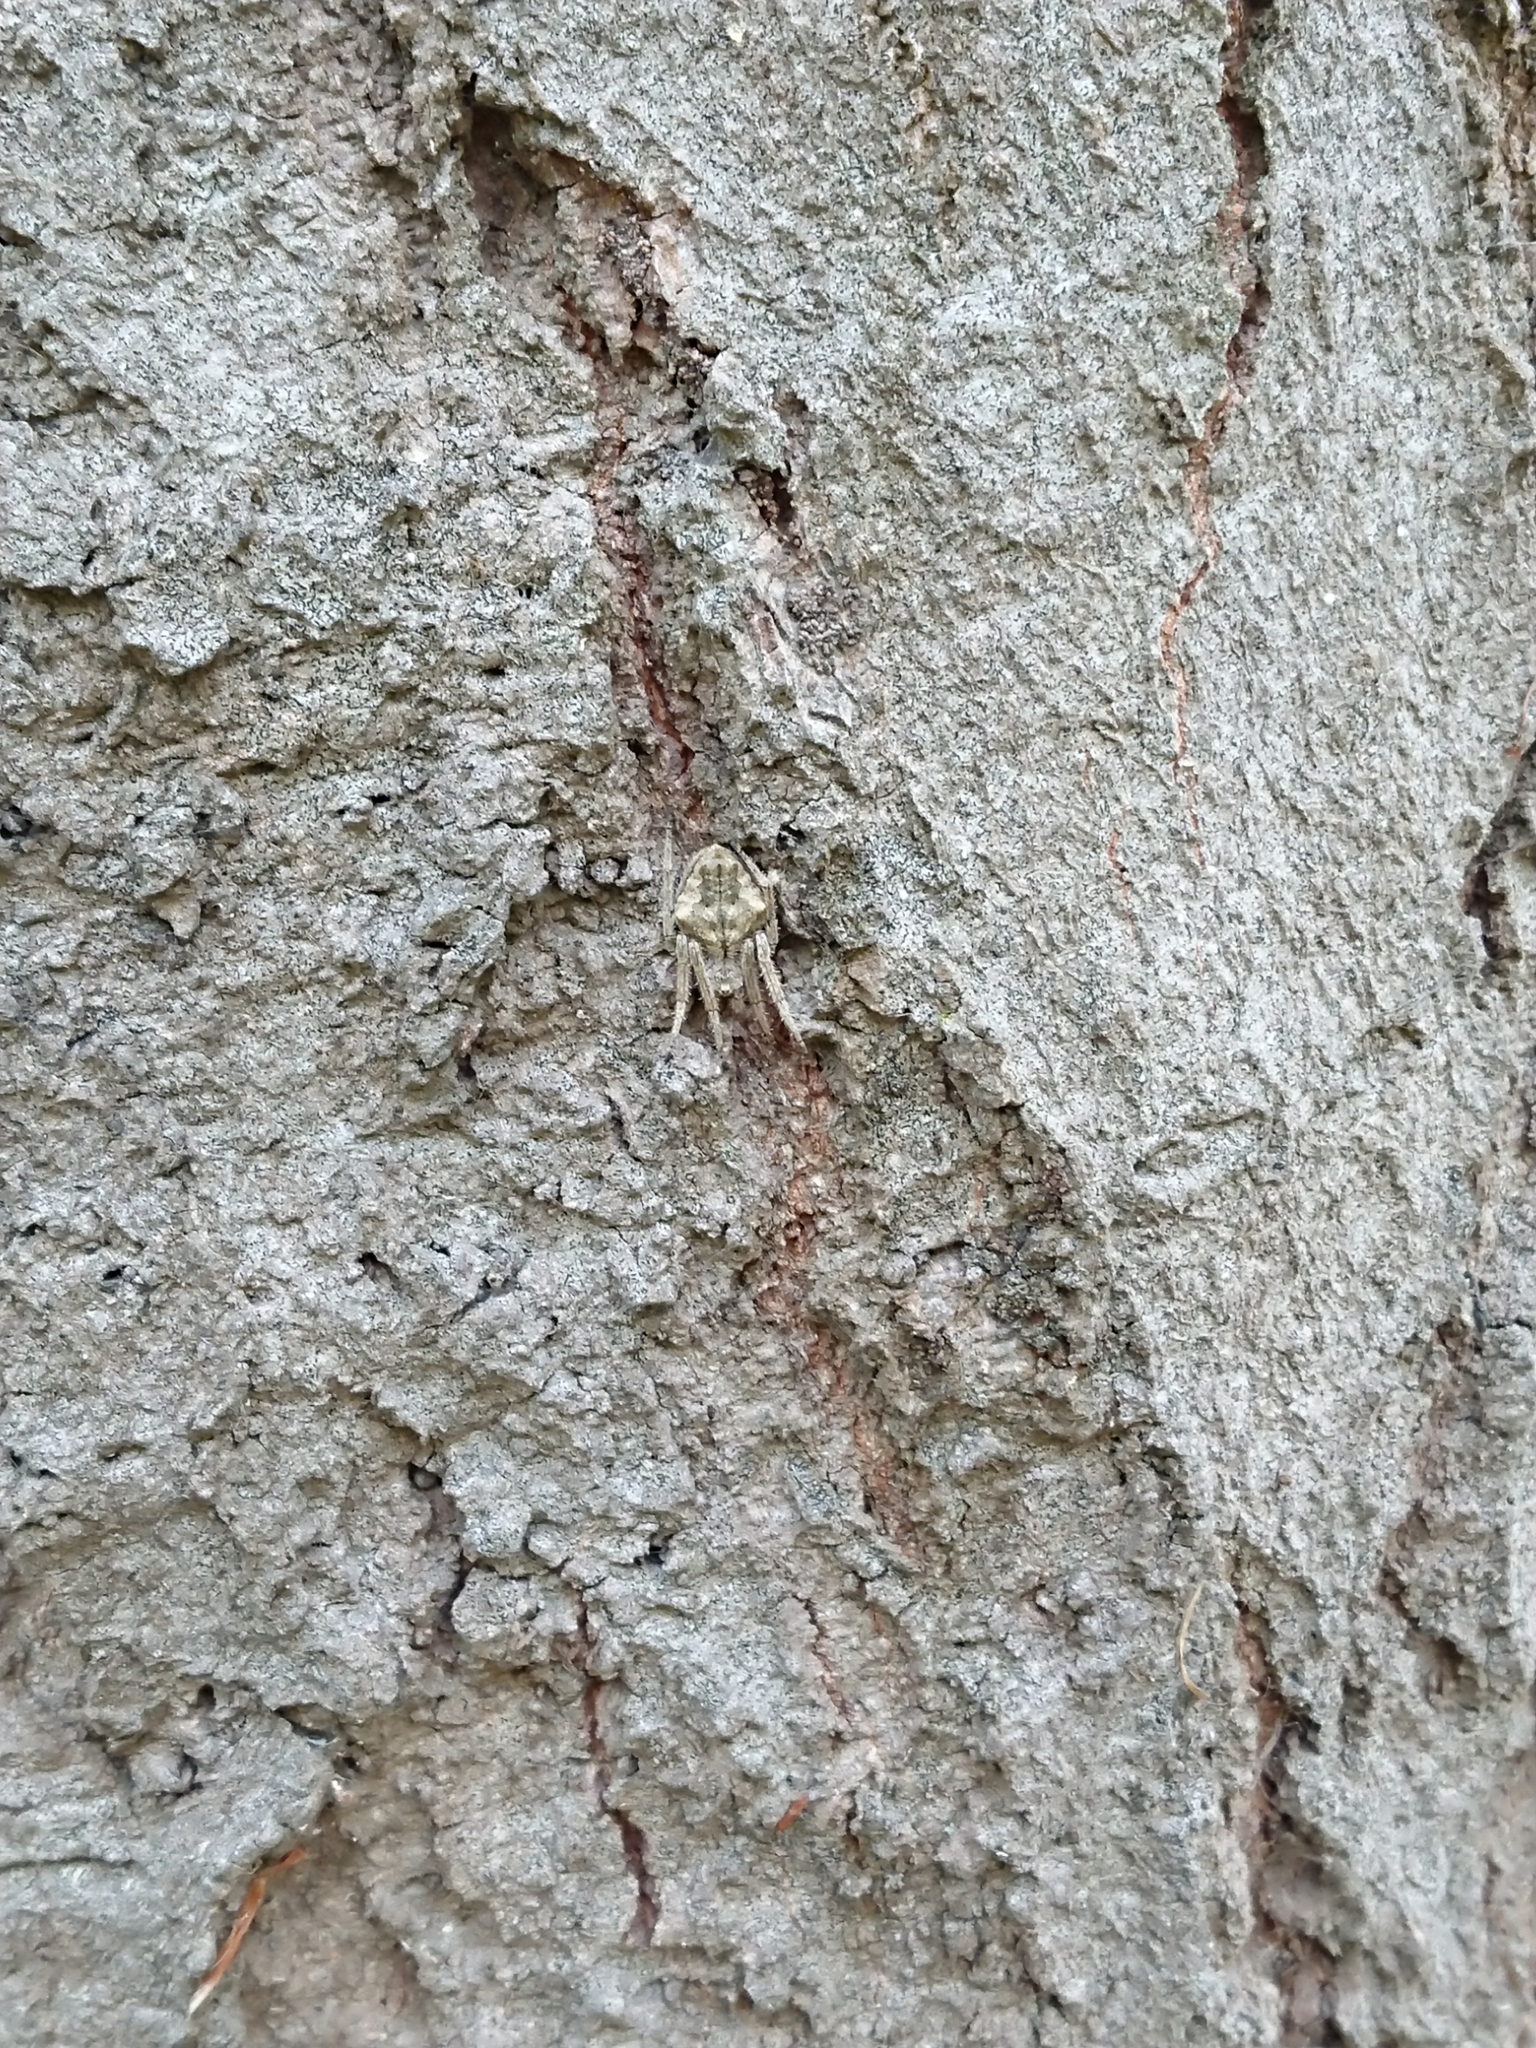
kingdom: Animalia
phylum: Arthropoda
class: Arachnida
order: Araneae
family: Araneidae
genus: Eriophora
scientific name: Eriophora pustulosa
